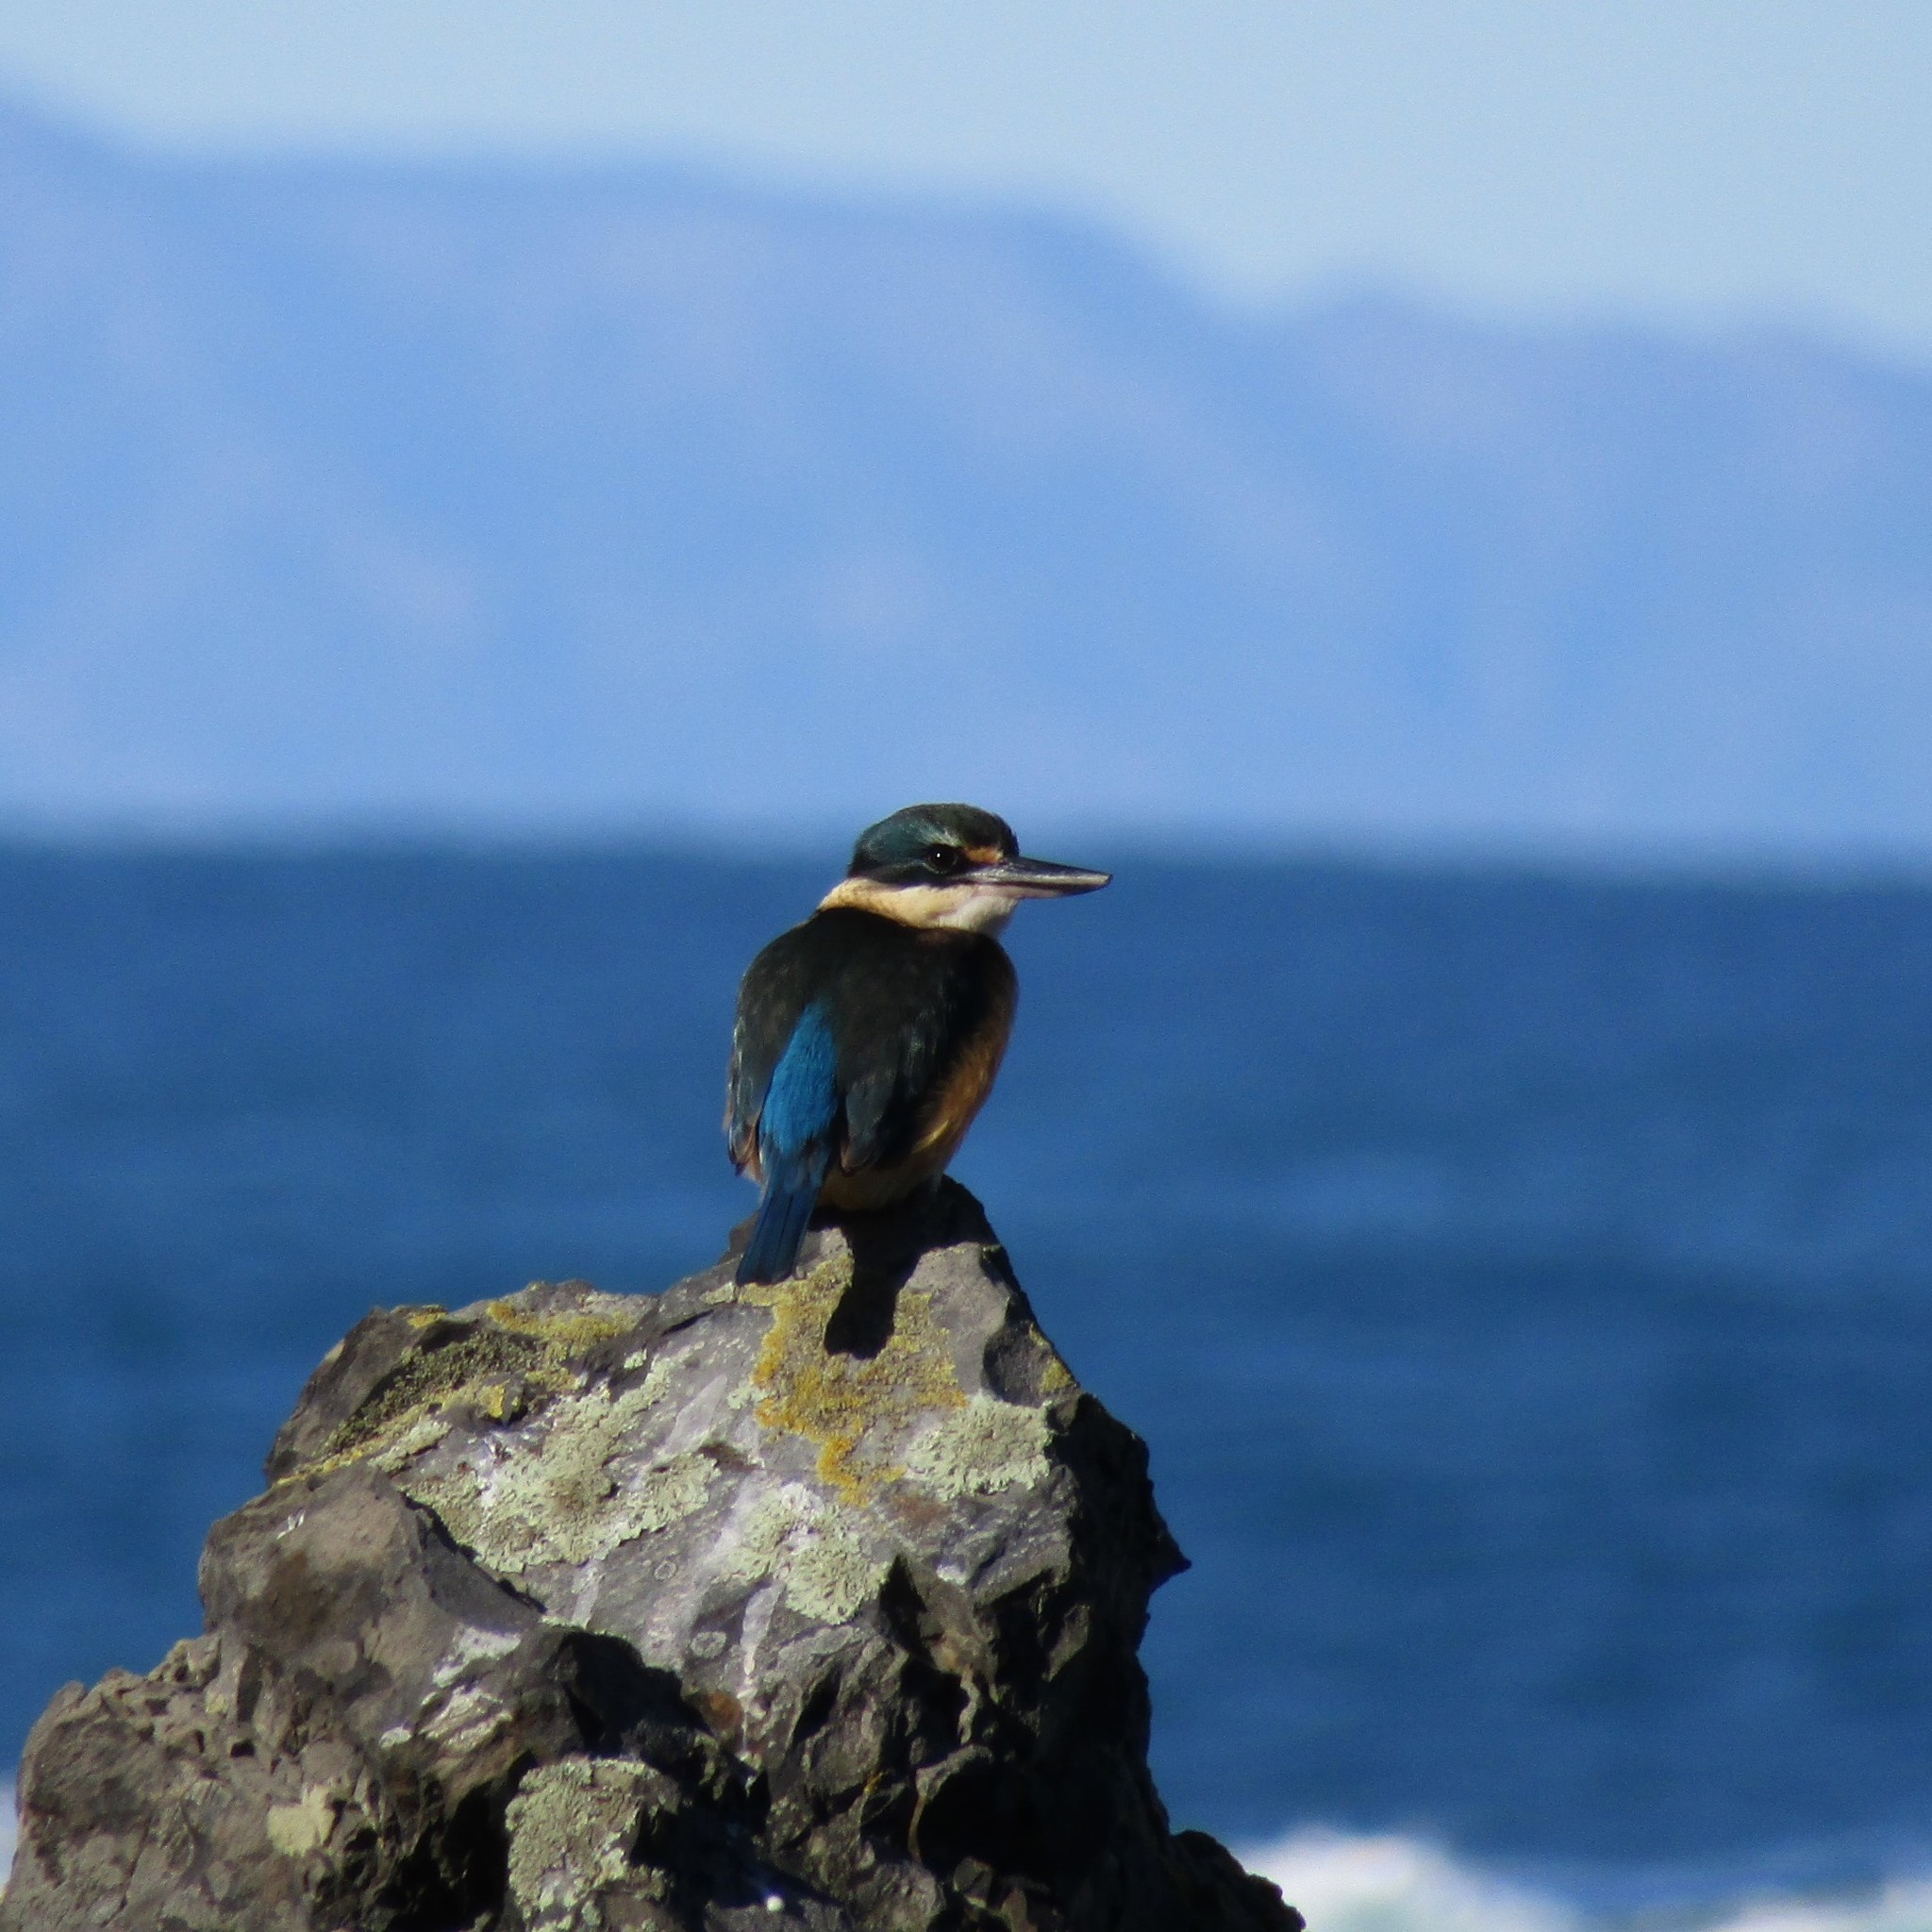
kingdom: Animalia
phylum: Chordata
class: Aves
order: Coraciiformes
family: Alcedinidae
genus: Todiramphus
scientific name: Todiramphus sanctus
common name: Sacred kingfisher
